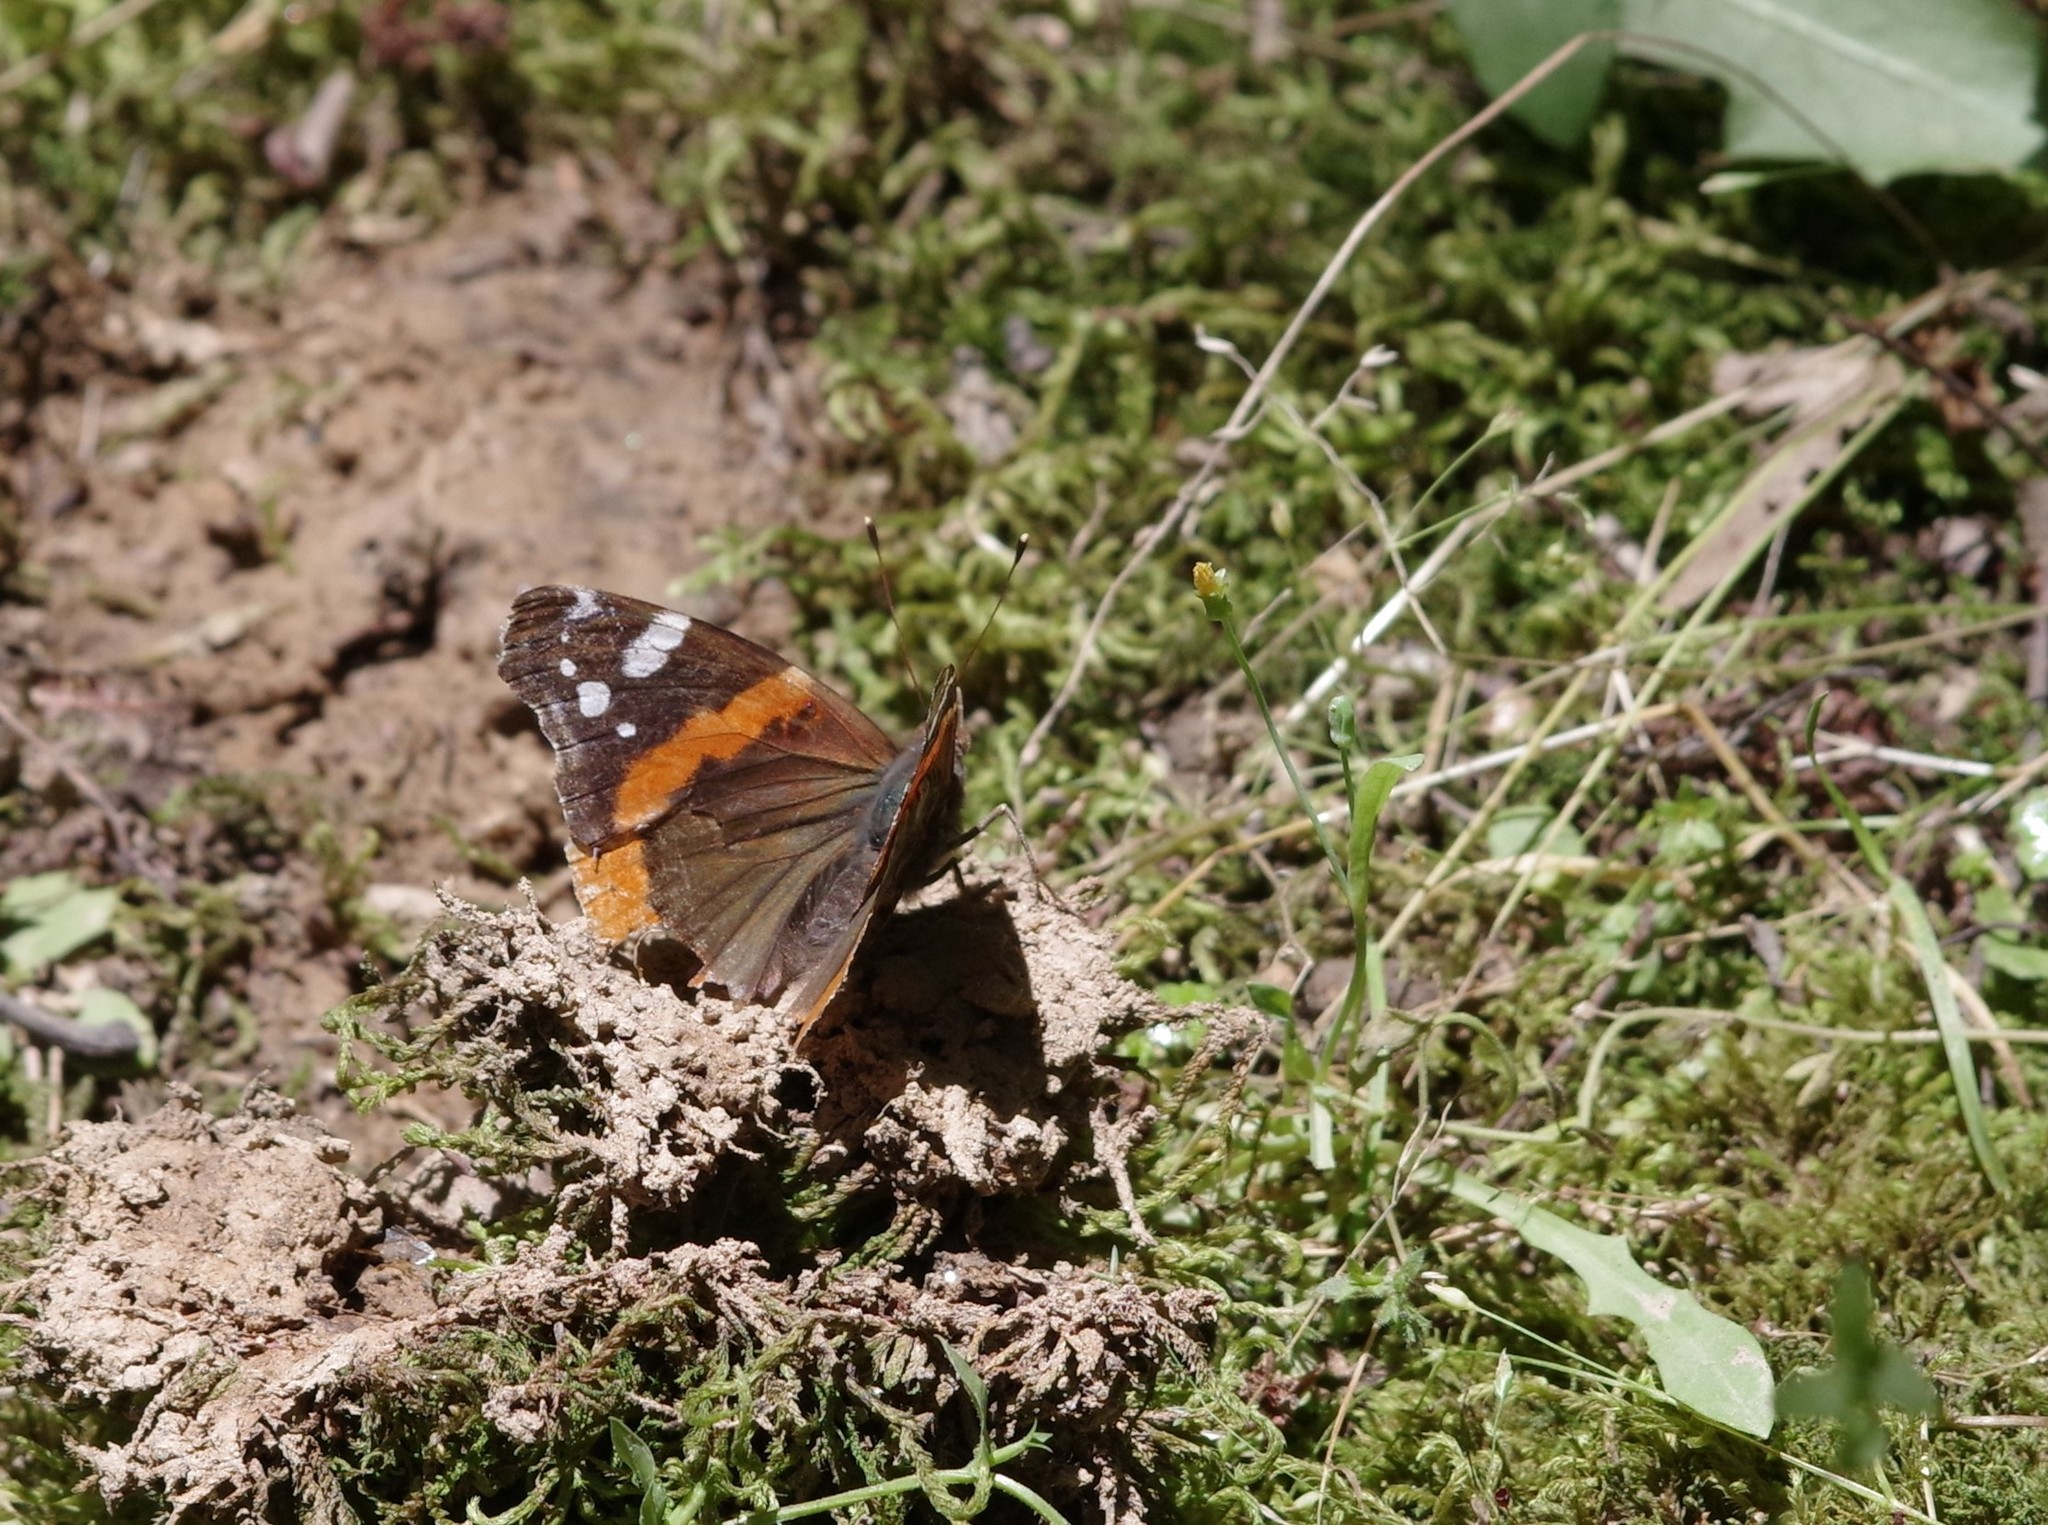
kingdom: Animalia
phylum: Arthropoda
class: Insecta
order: Lepidoptera
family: Nymphalidae
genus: Vanessa
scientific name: Vanessa atalanta
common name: Red admiral
